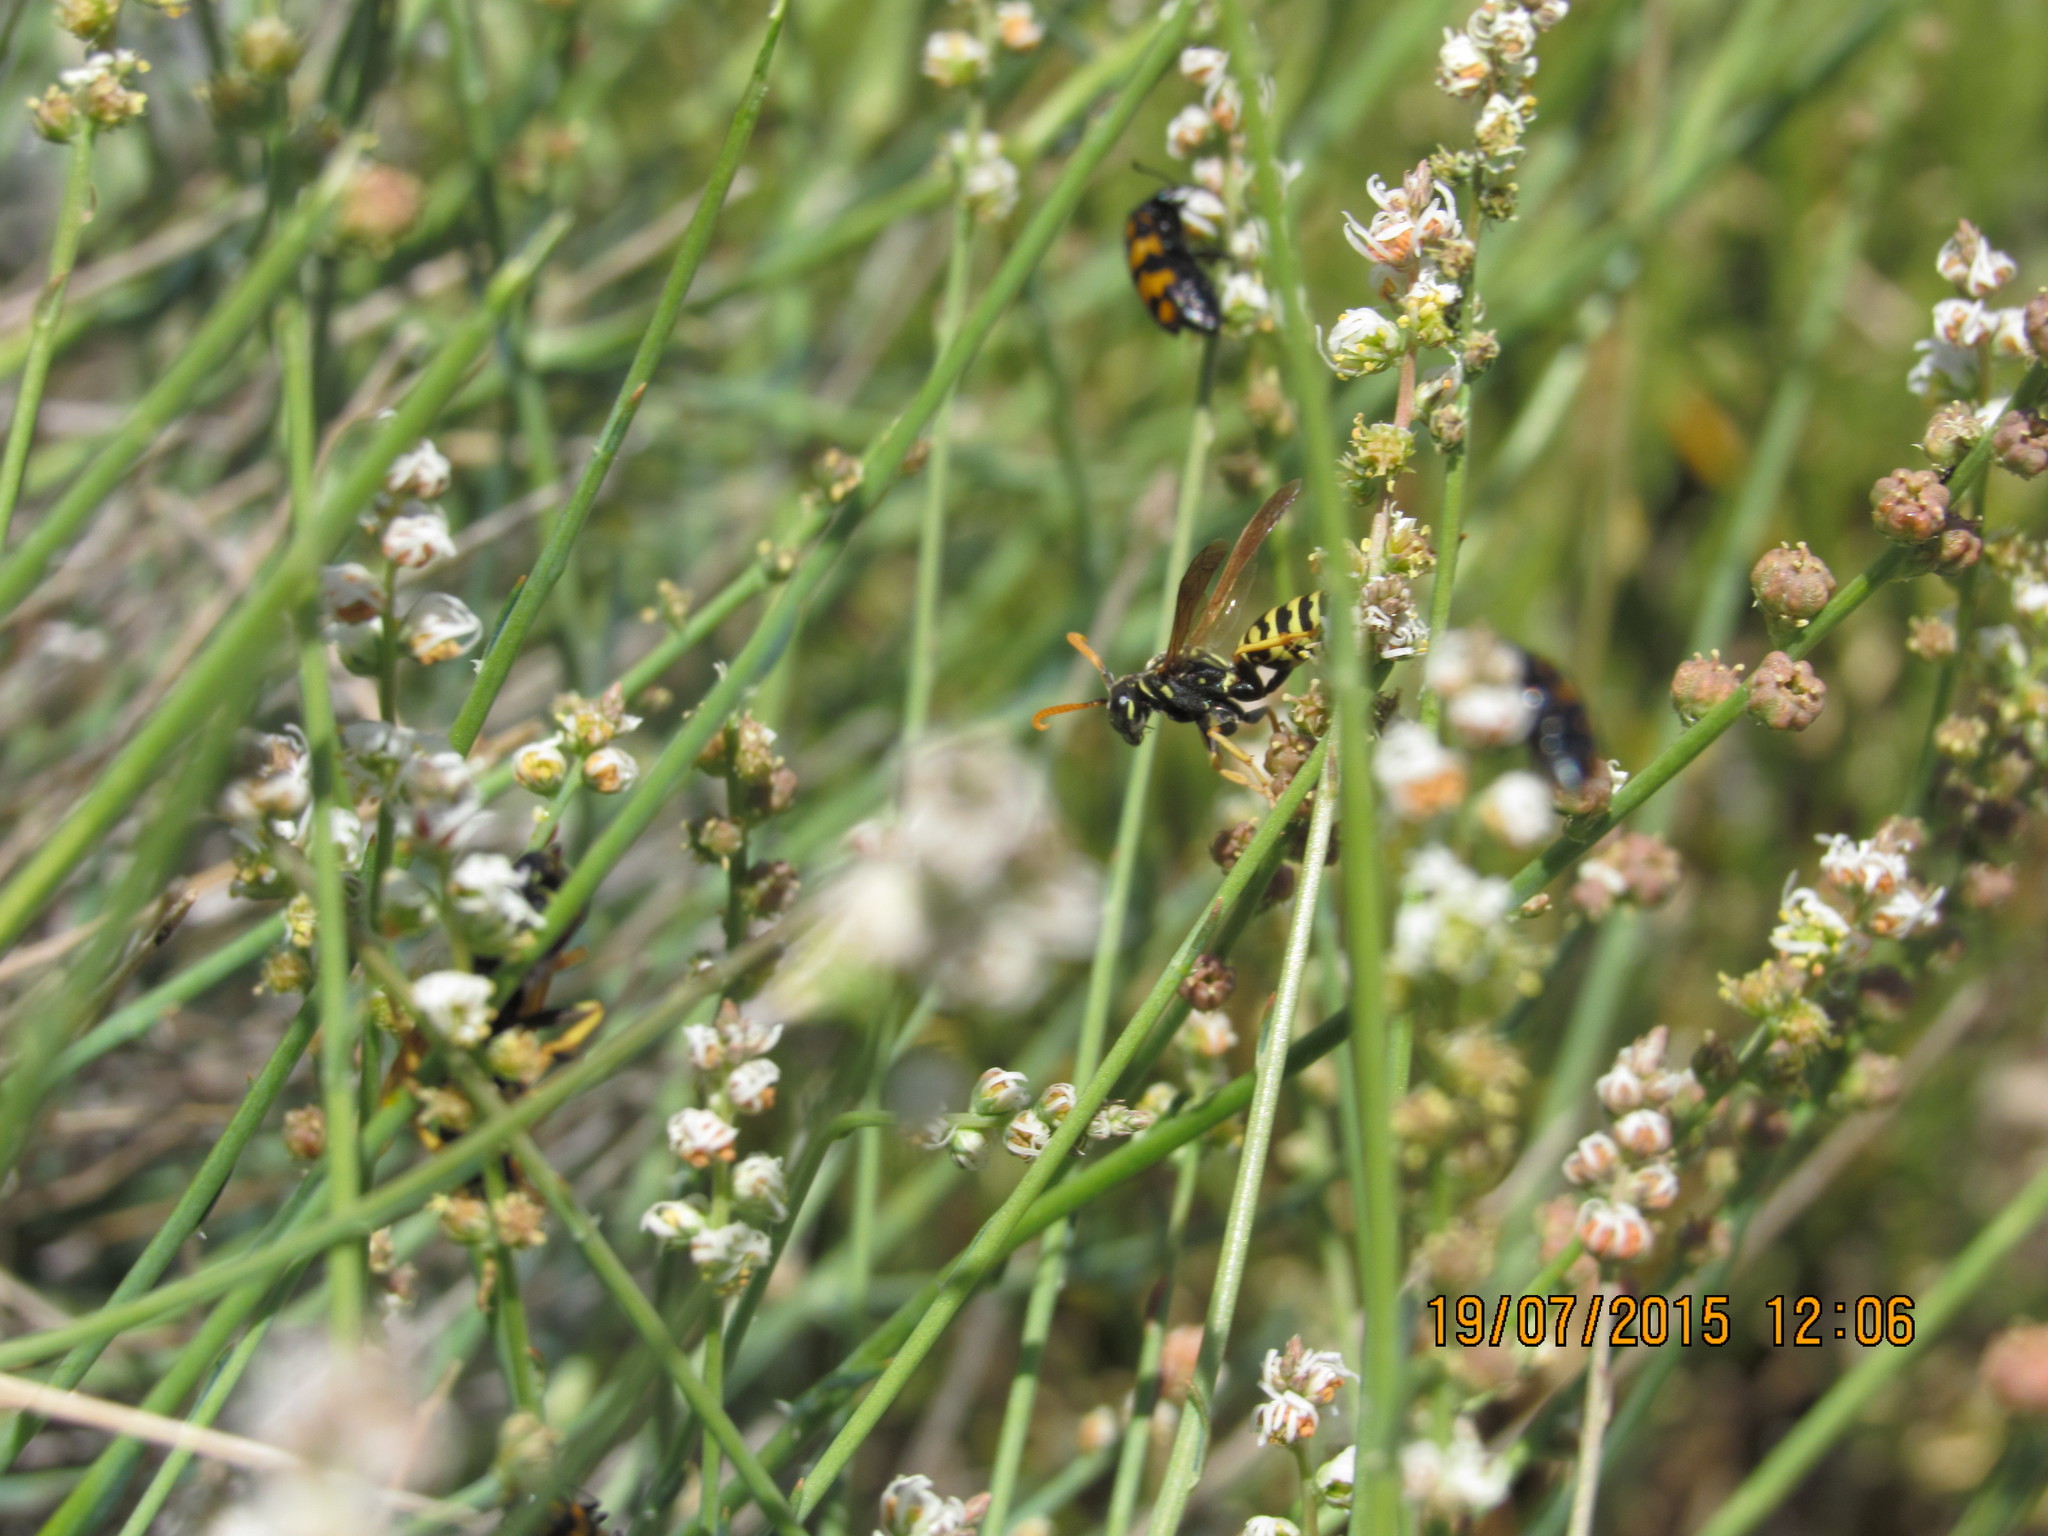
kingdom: Plantae
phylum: Tracheophyta
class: Magnoliopsida
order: Brassicales
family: Resedaceae
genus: Reseda
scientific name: Reseda complicata
